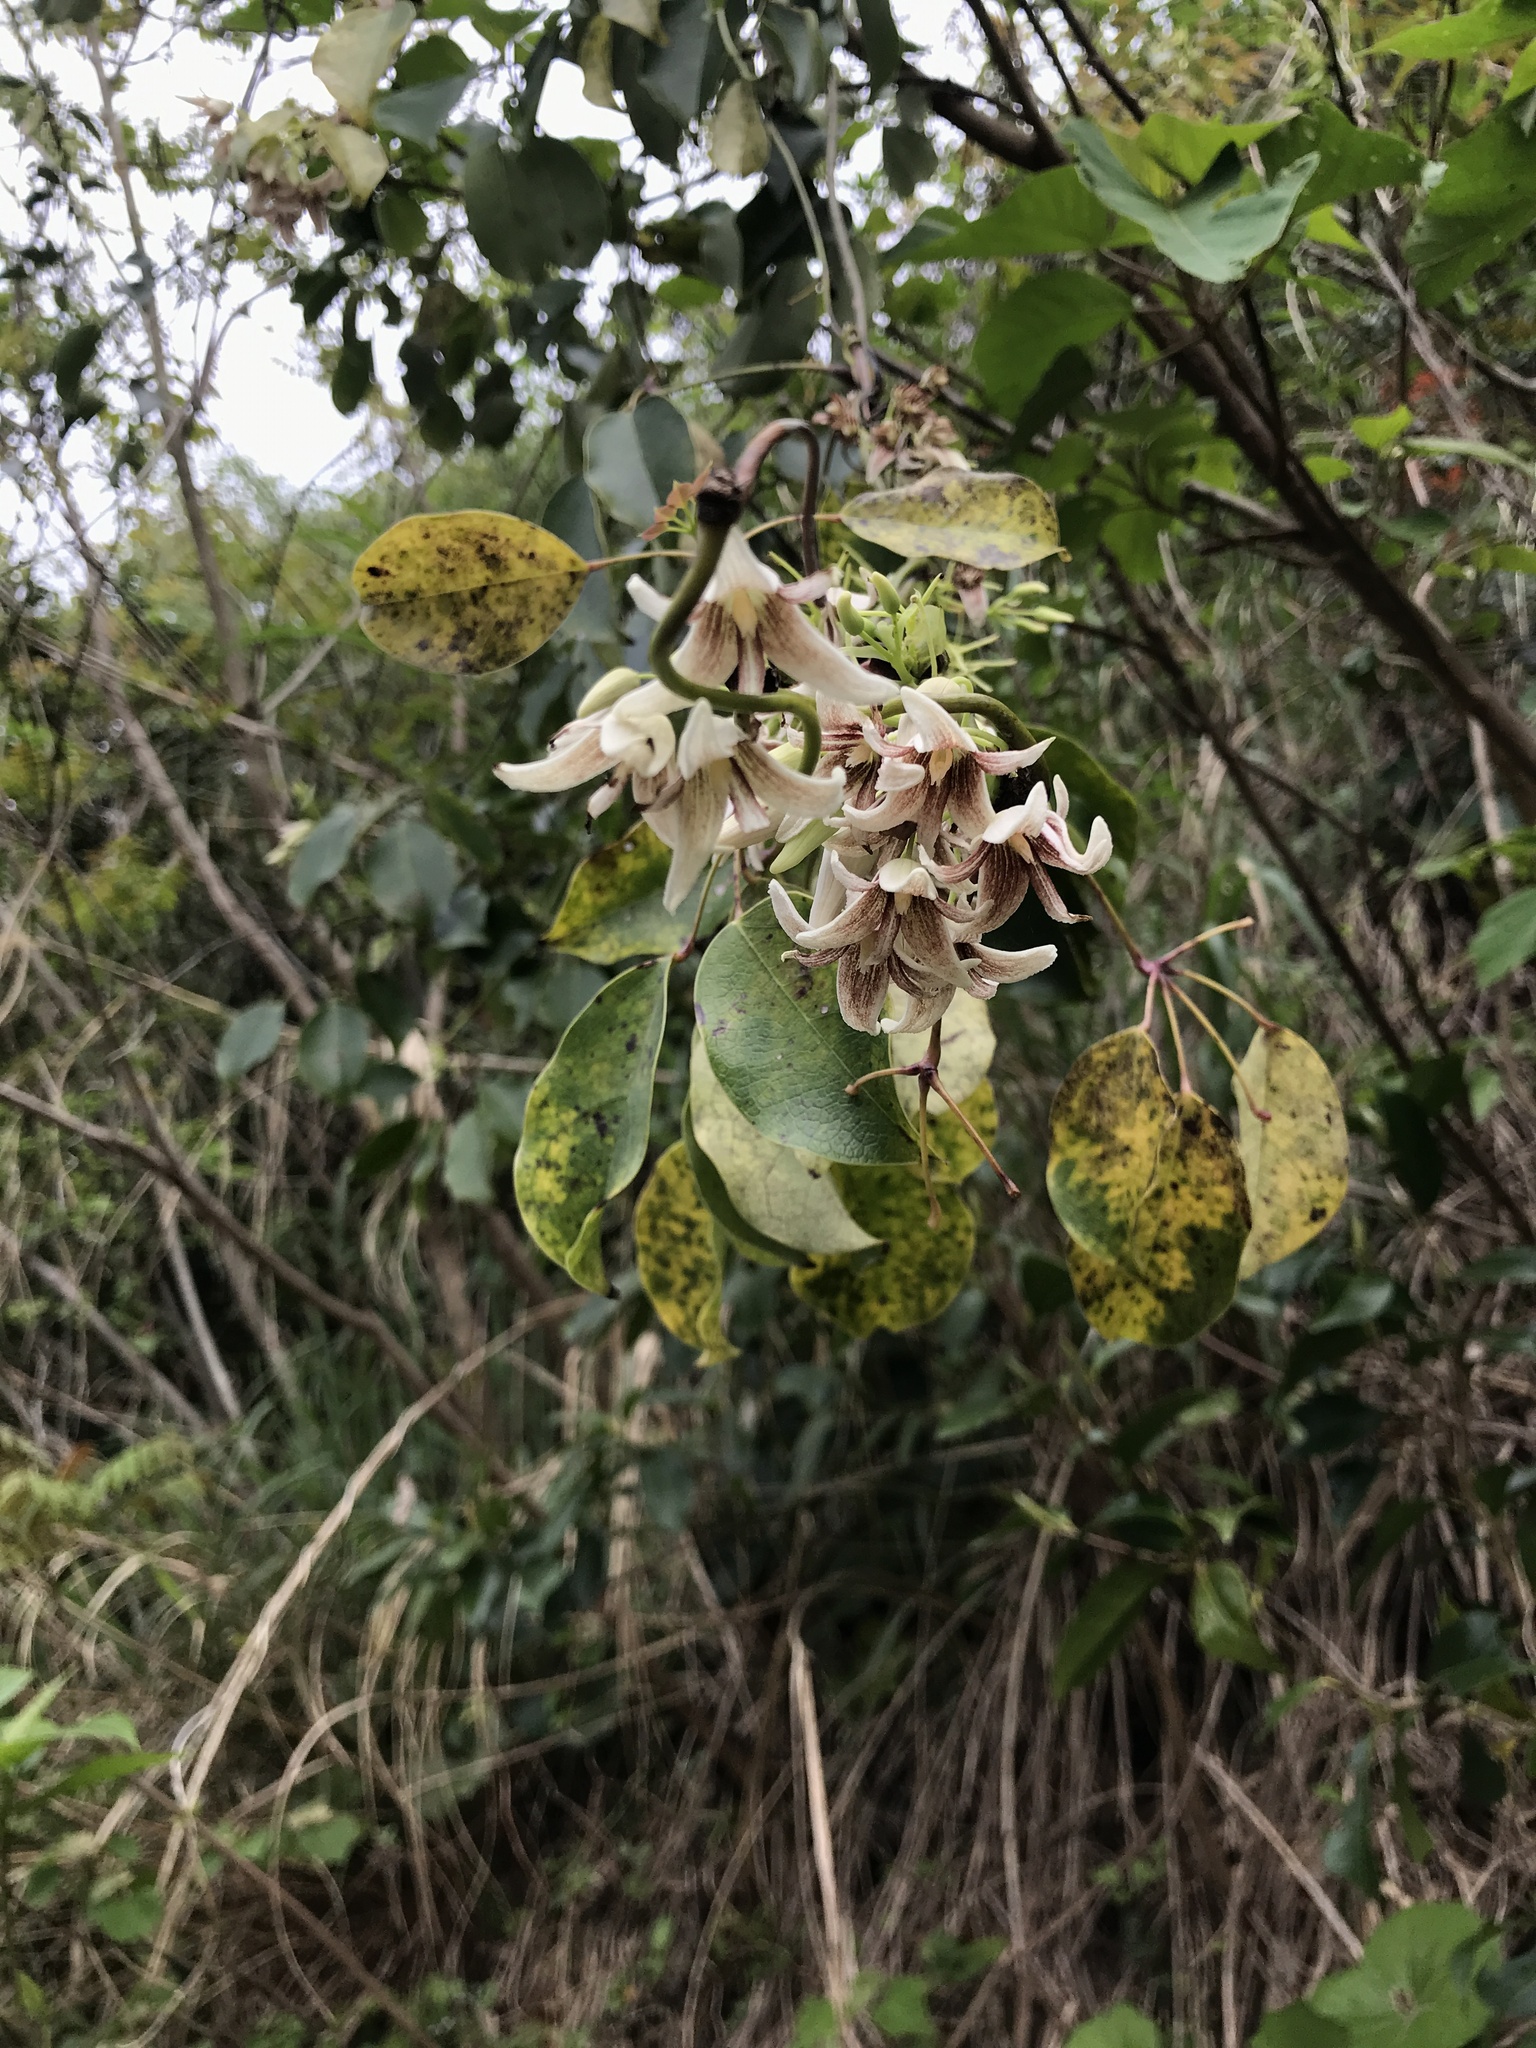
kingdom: Plantae
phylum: Tracheophyta
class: Magnoliopsida
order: Ranunculales
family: Lardizabalaceae
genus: Stauntonia
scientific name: Stauntonia hexaphylla
